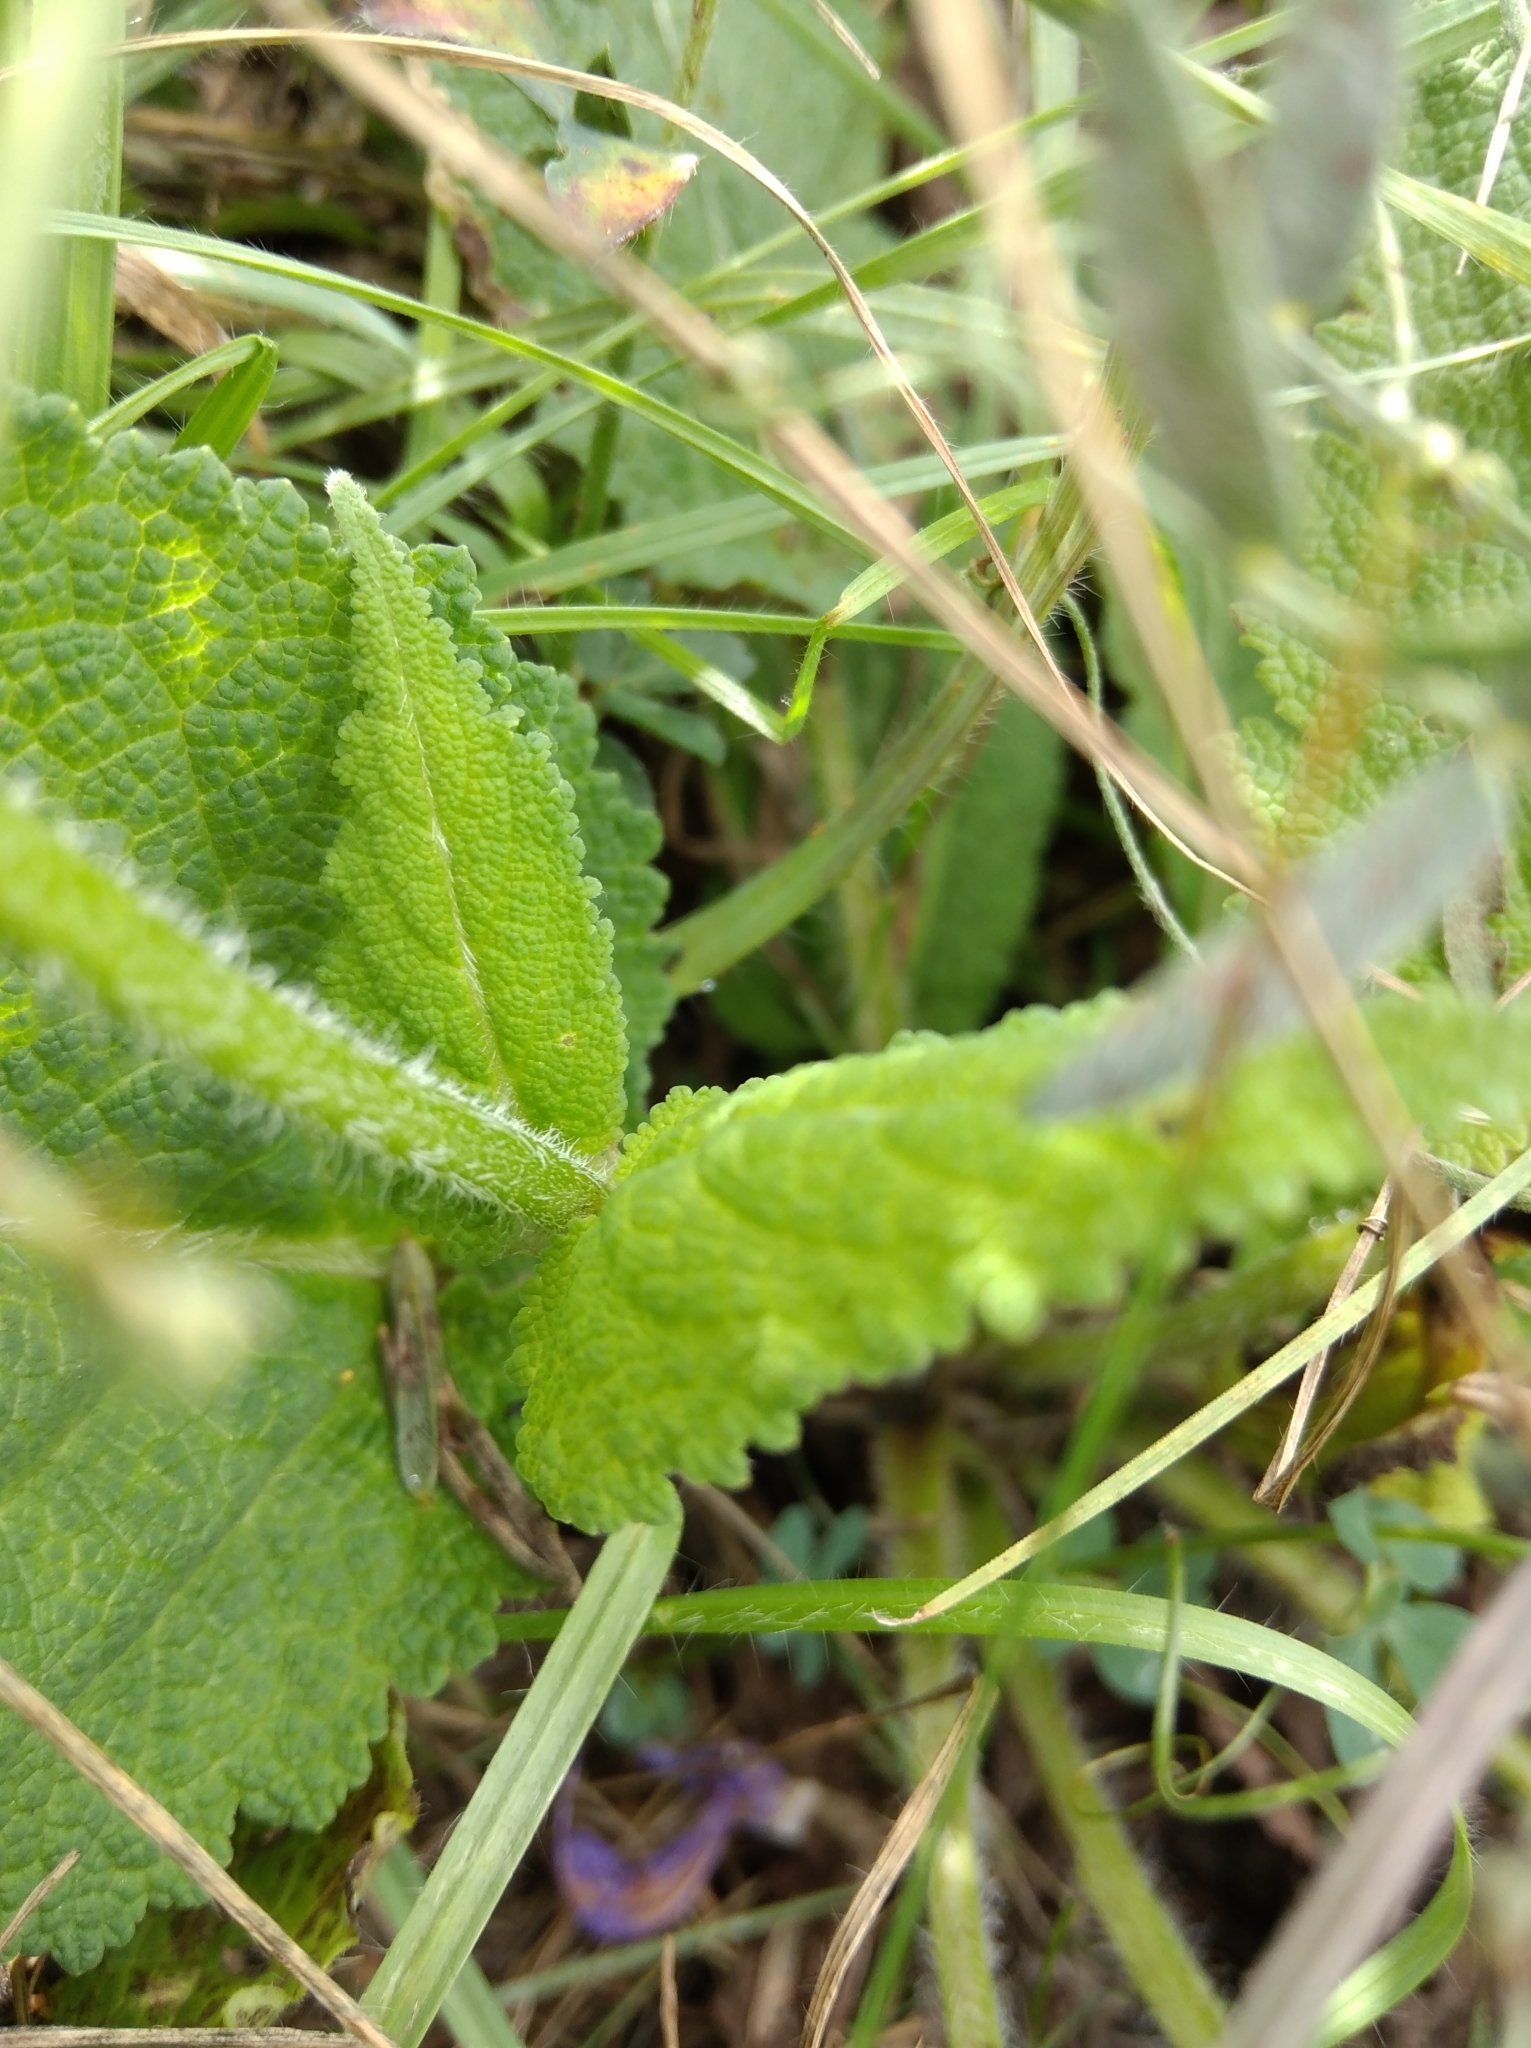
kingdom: Plantae
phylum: Tracheophyta
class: Magnoliopsida
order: Lamiales
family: Lamiaceae
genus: Salvia
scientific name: Salvia pratensis
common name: Meadow sage
